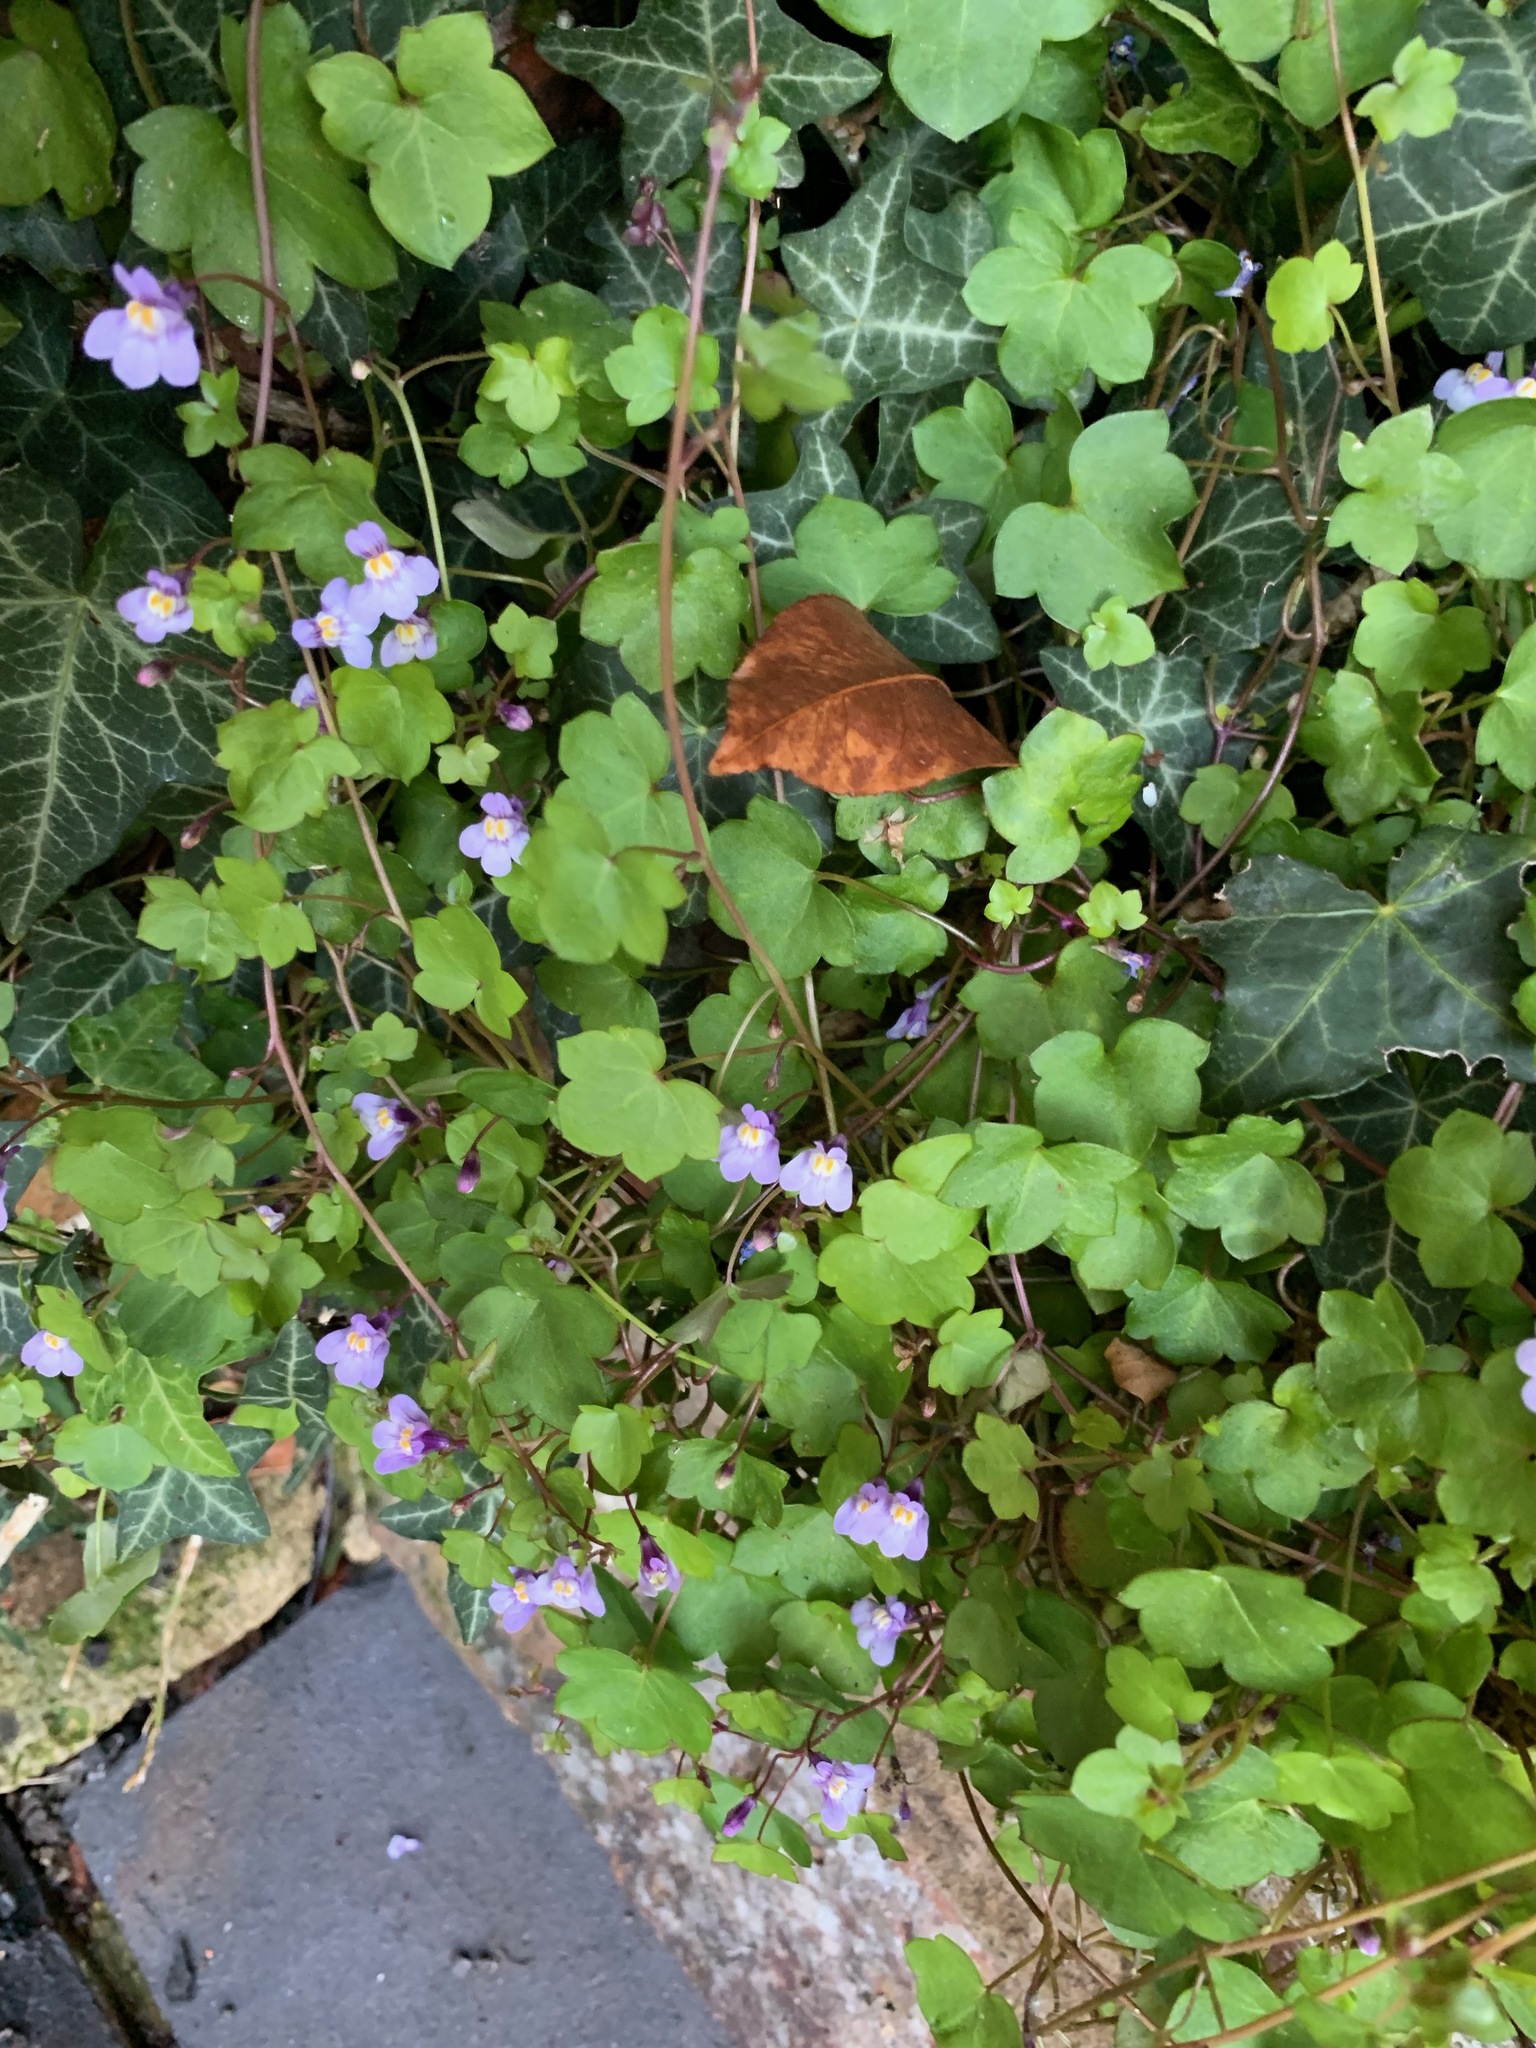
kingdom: Plantae
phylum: Tracheophyta
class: Magnoliopsida
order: Lamiales
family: Plantaginaceae
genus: Cymbalaria
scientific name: Cymbalaria muralis
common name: Ivy-leaved toadflax
